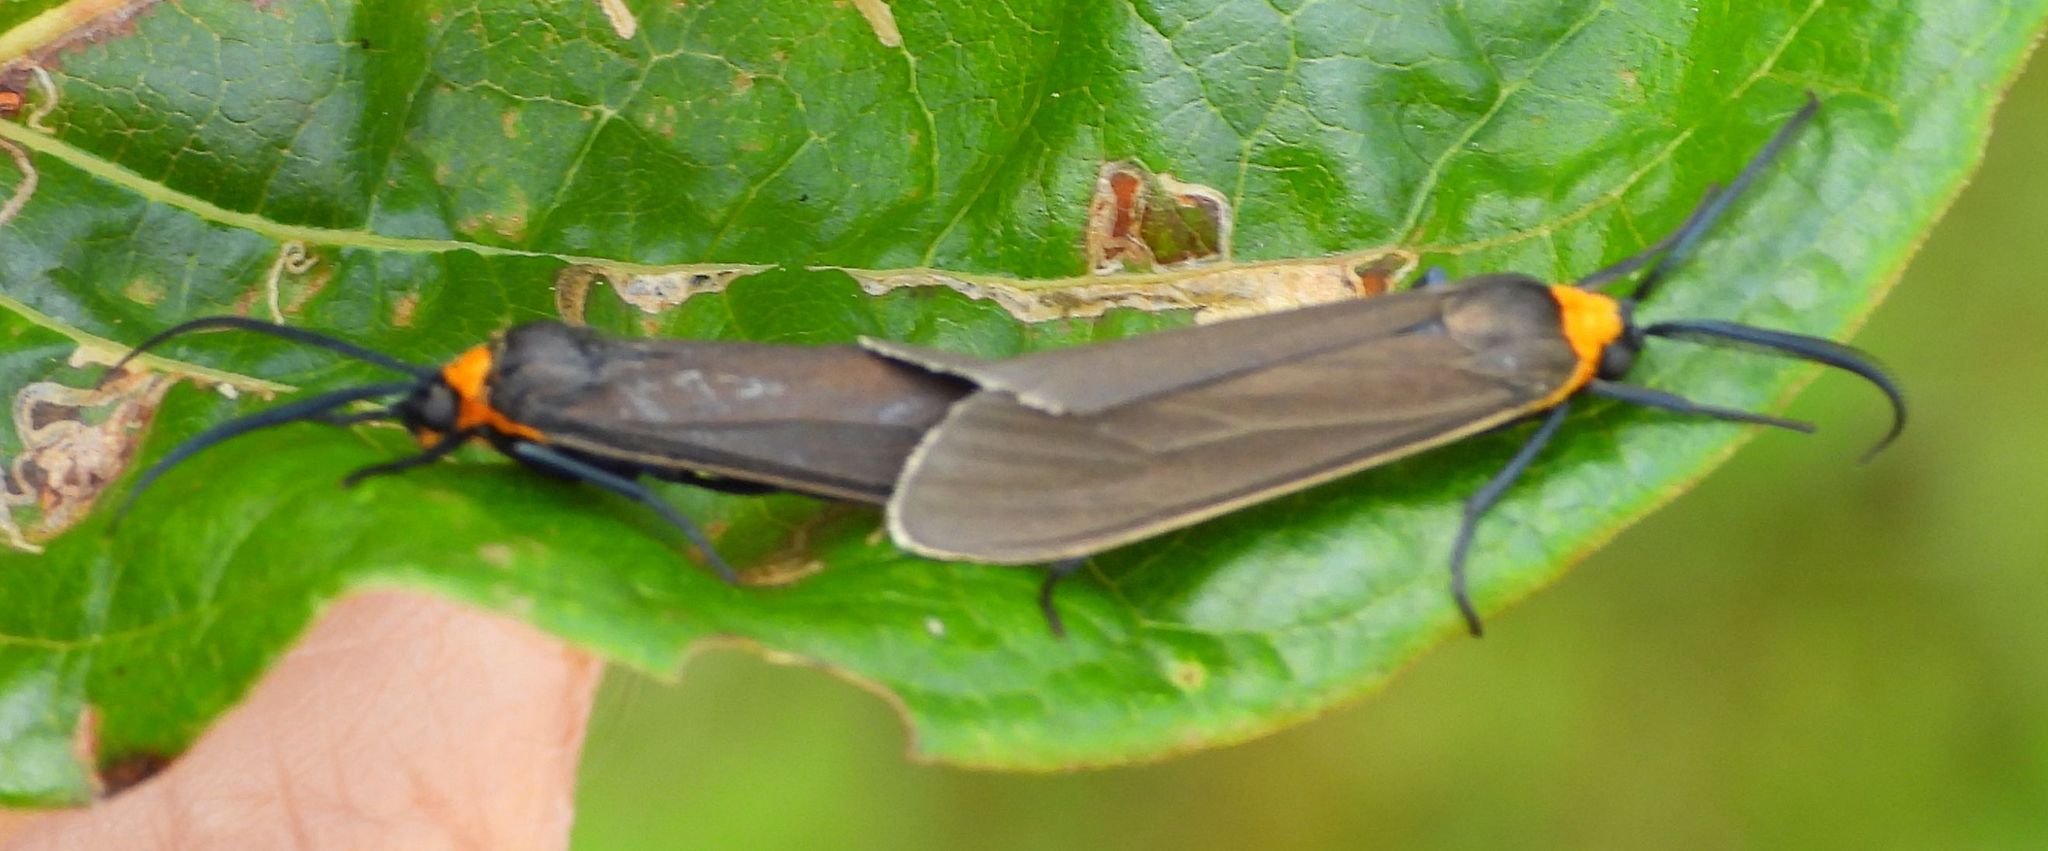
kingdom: Animalia
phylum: Arthropoda
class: Insecta
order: Lepidoptera
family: Erebidae
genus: Cisseps
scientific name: Cisseps fulvicollis
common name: Yellow-collared scape moth
